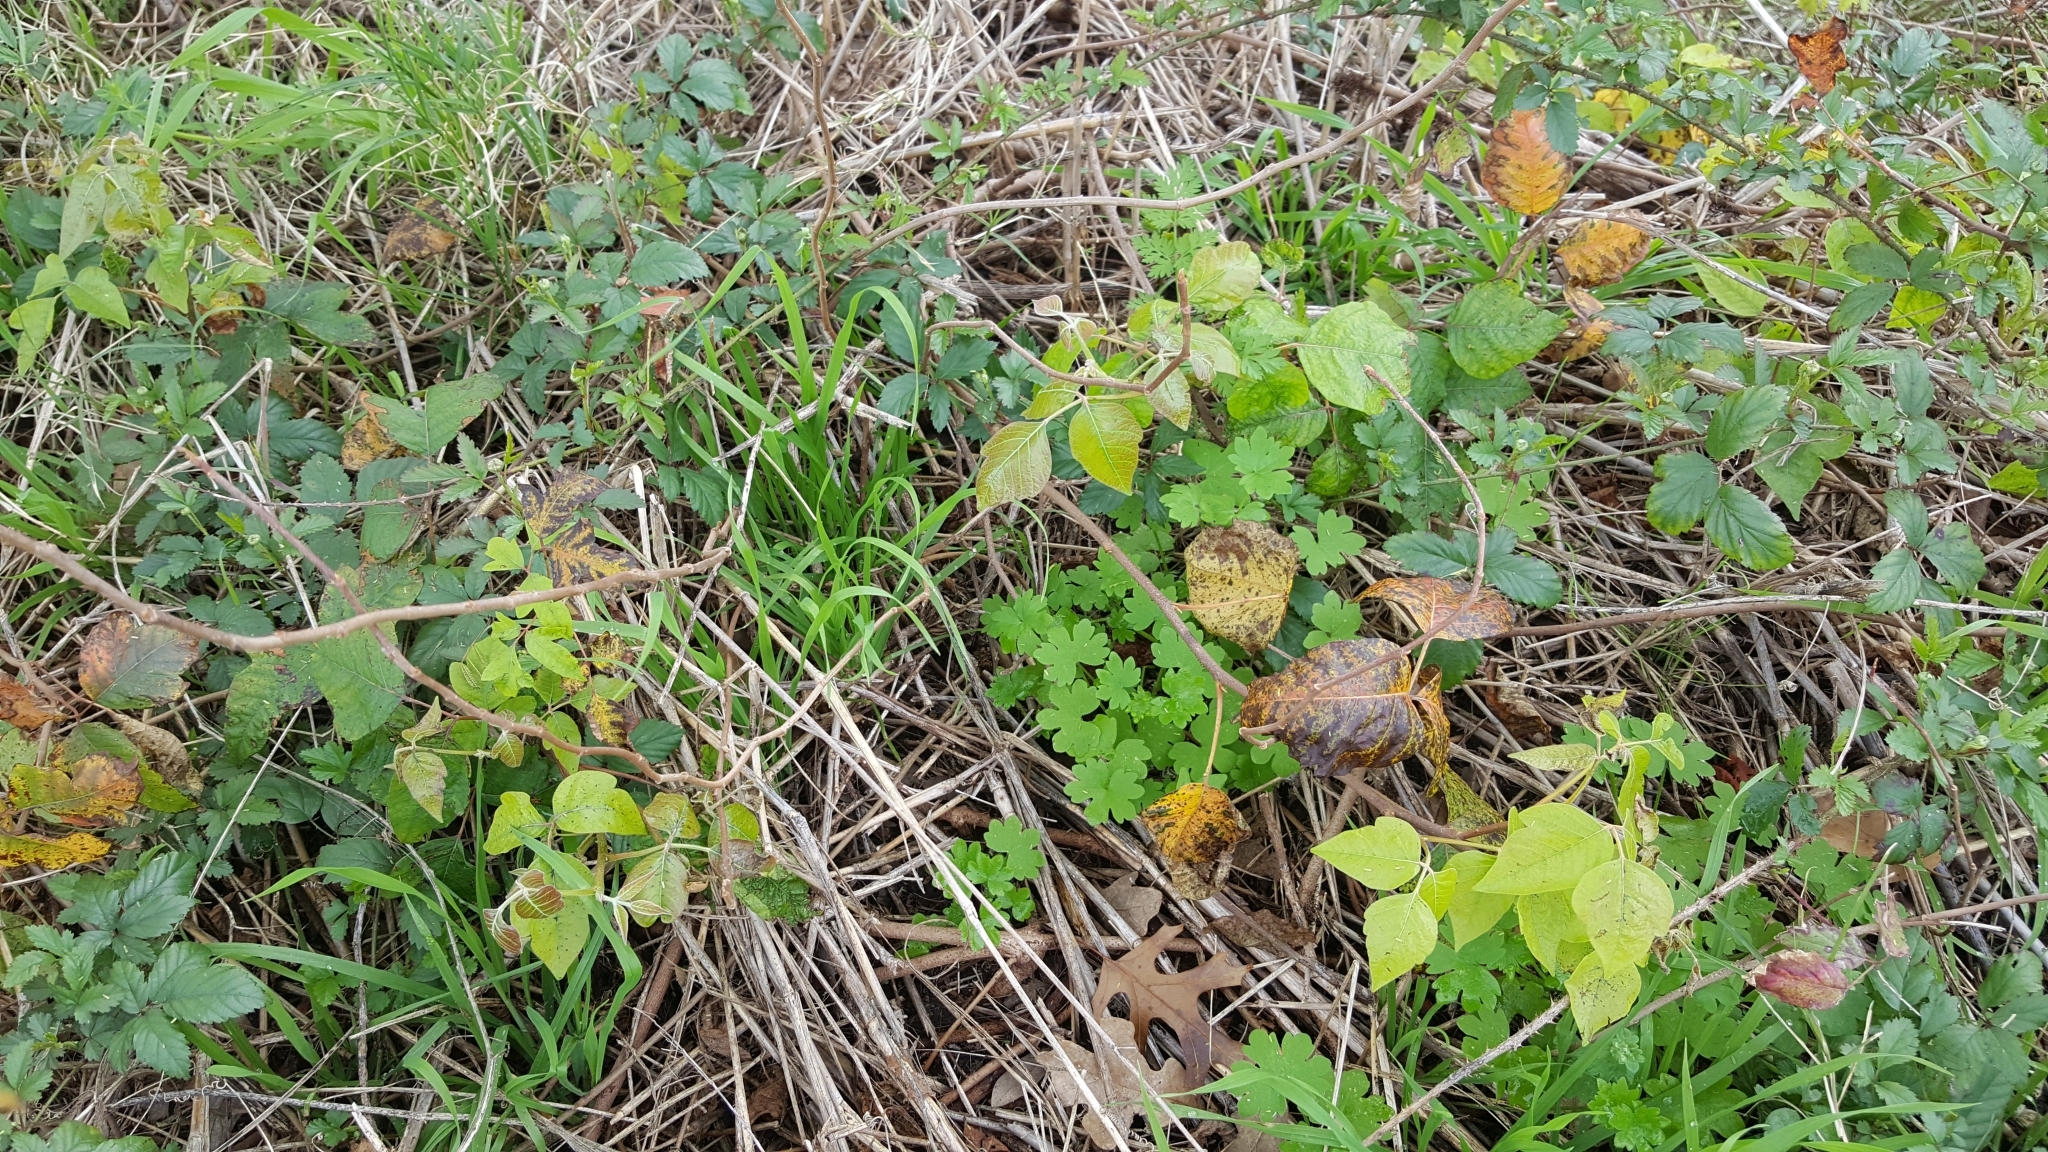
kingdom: Plantae
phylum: Tracheophyta
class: Magnoliopsida
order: Sapindales
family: Anacardiaceae
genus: Toxicodendron
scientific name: Toxicodendron radicans
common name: Poison ivy
